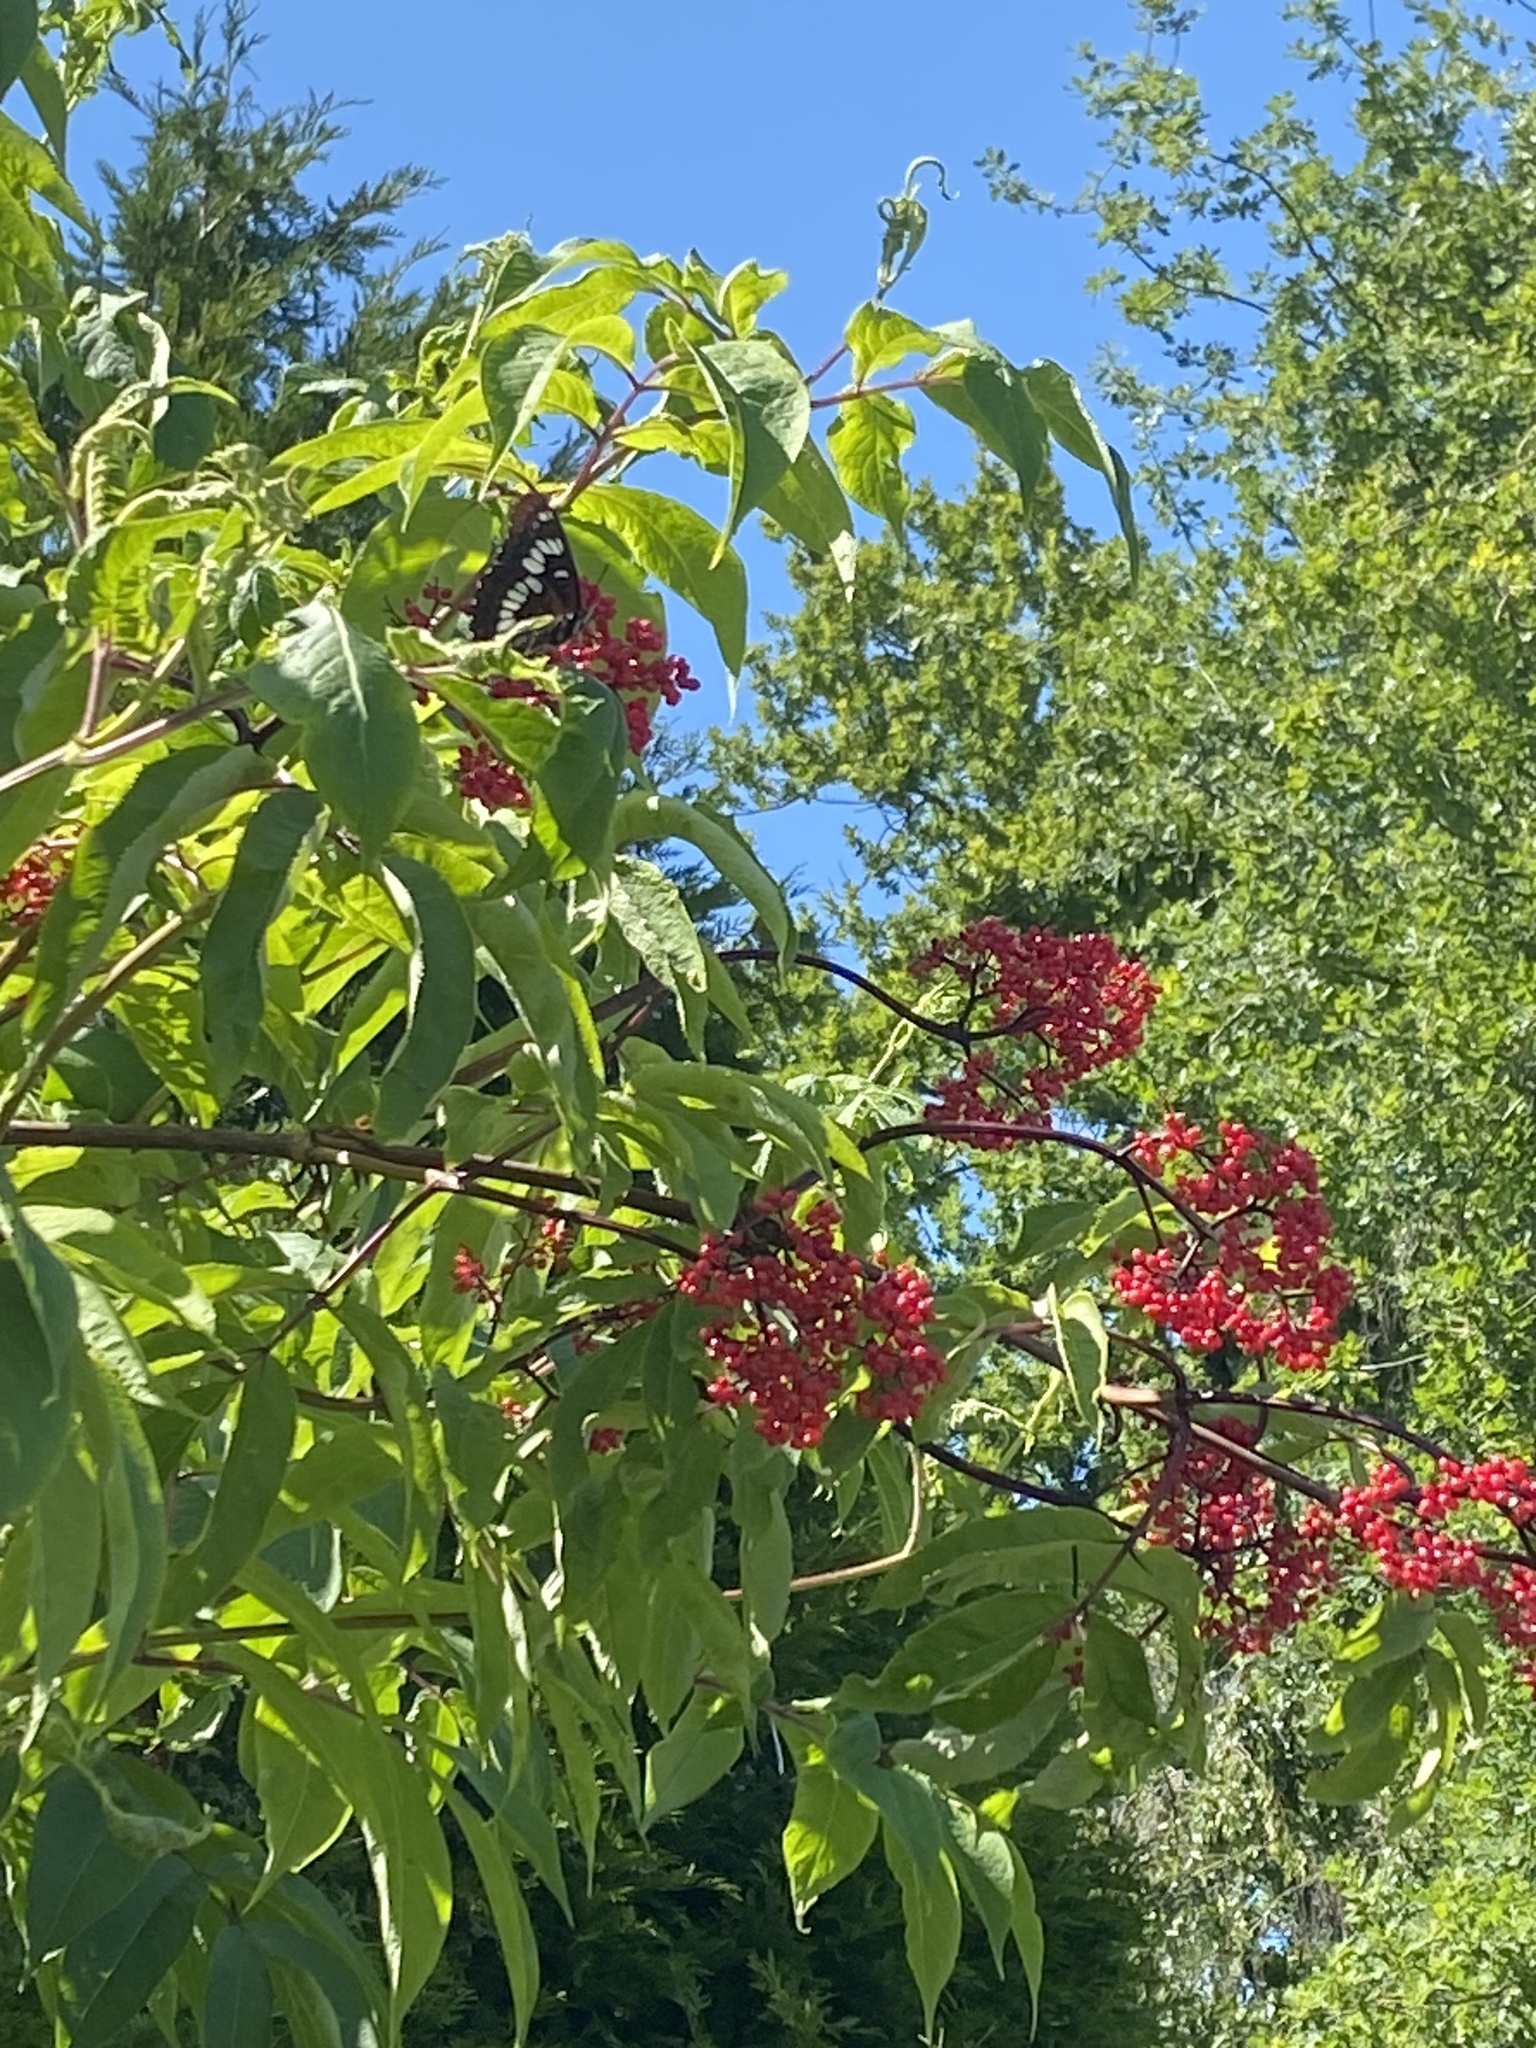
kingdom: Animalia
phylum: Arthropoda
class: Insecta
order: Lepidoptera
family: Nymphalidae
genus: Limenitis
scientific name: Limenitis lorquini
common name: Lorquin's admiral
